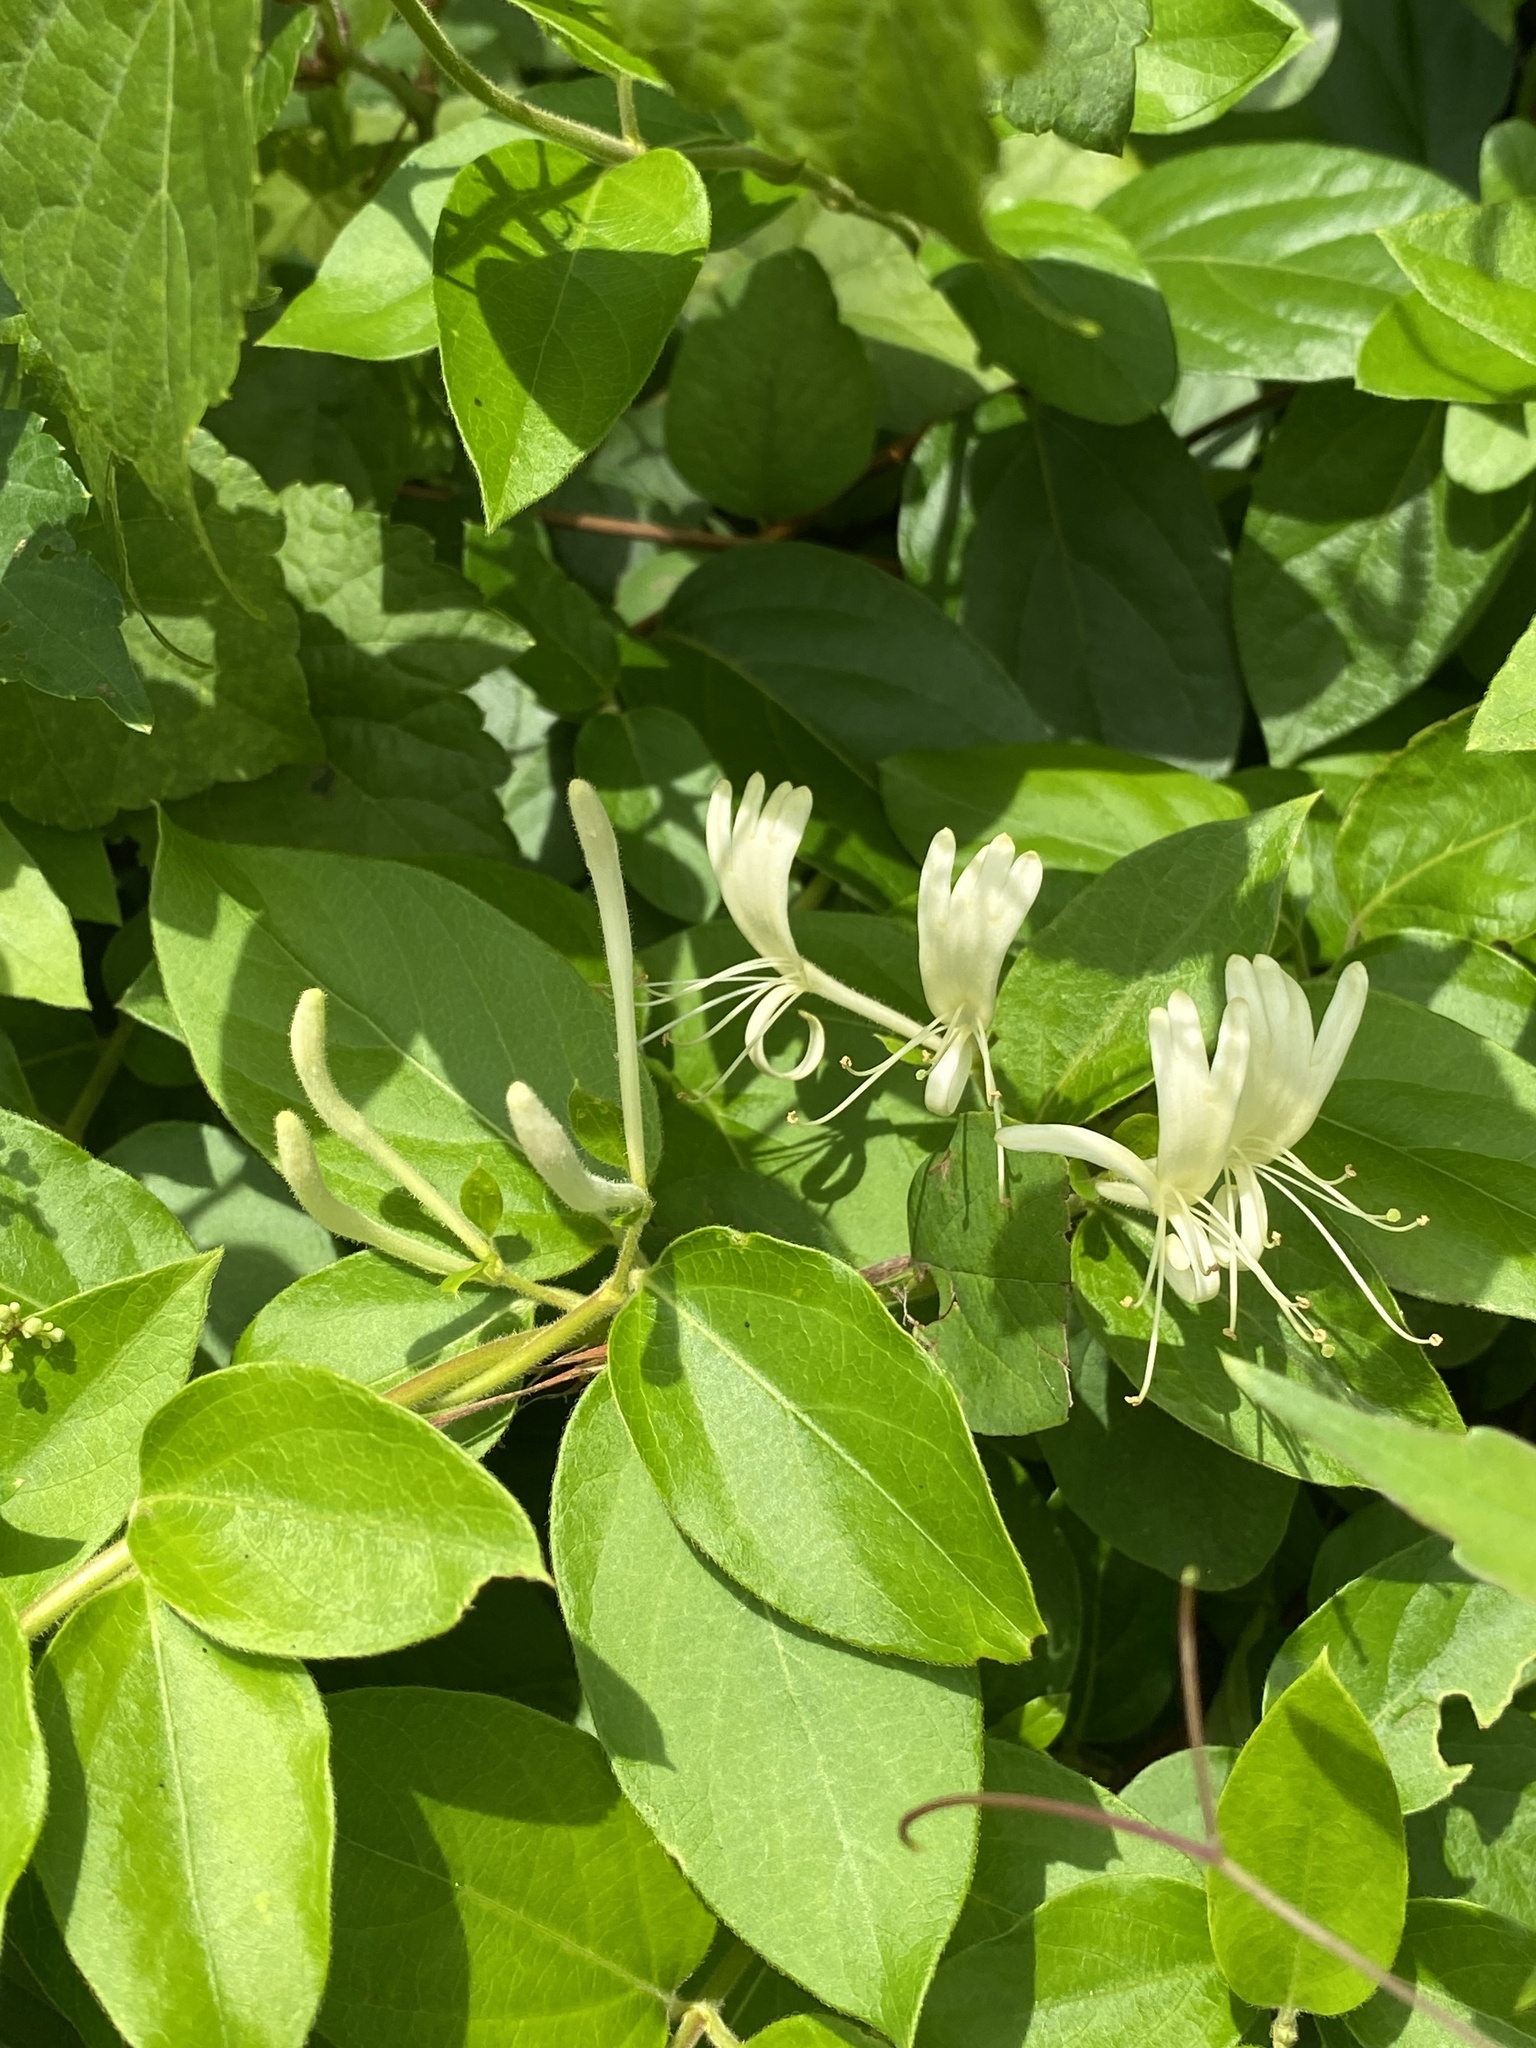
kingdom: Plantae
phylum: Tracheophyta
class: Magnoliopsida
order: Dipsacales
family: Caprifoliaceae
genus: Lonicera
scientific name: Lonicera japonica
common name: Japanese honeysuckle
